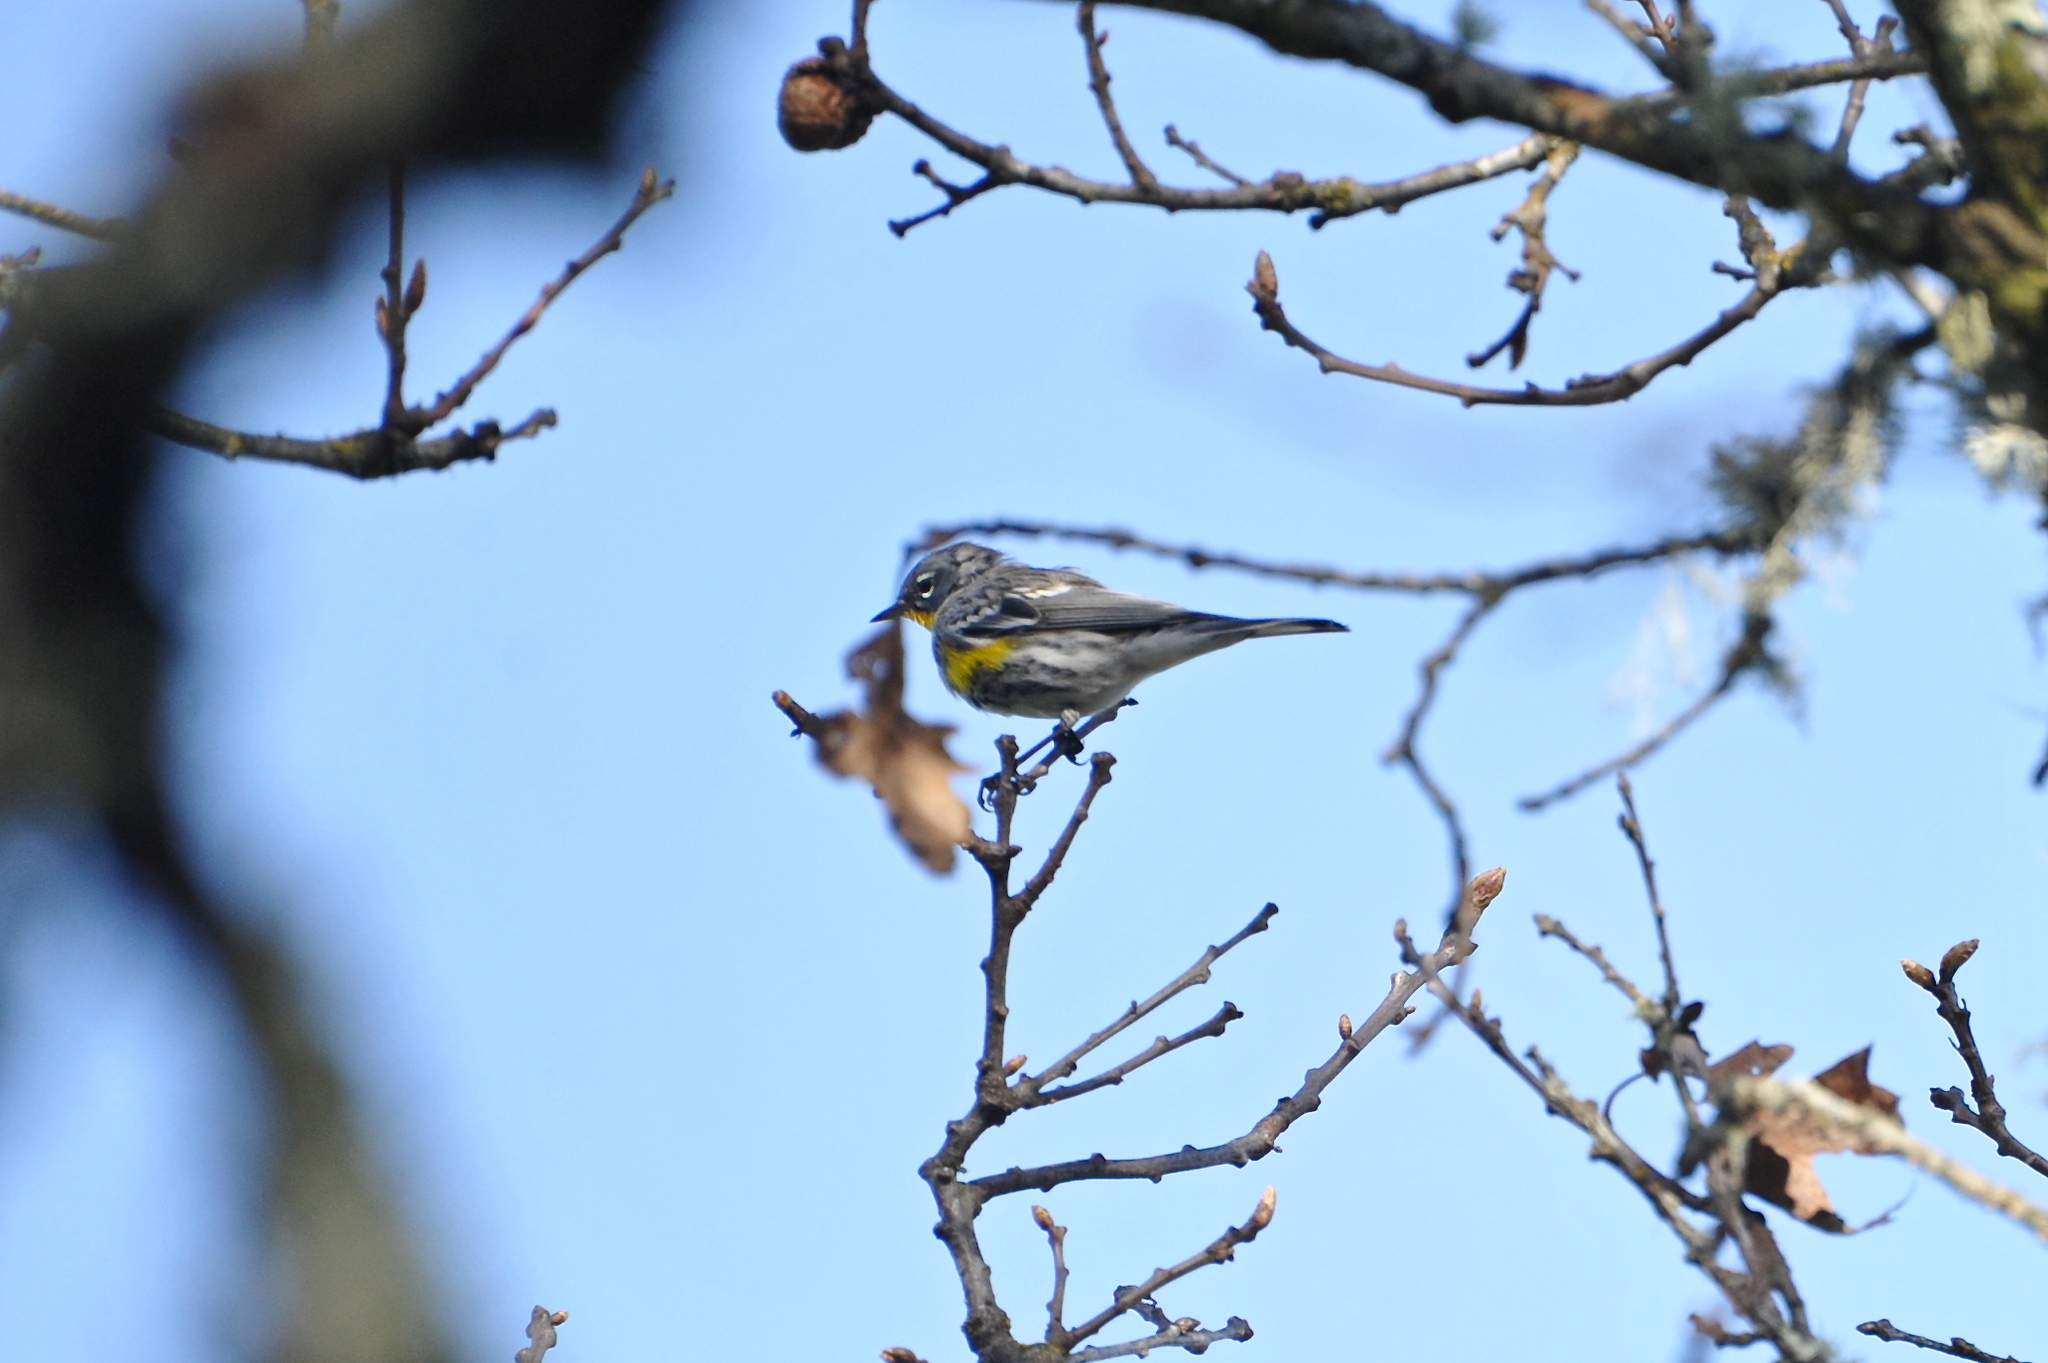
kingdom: Animalia
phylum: Chordata
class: Aves
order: Passeriformes
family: Parulidae
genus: Setophaga
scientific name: Setophaga auduboni
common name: Audubon's warbler
